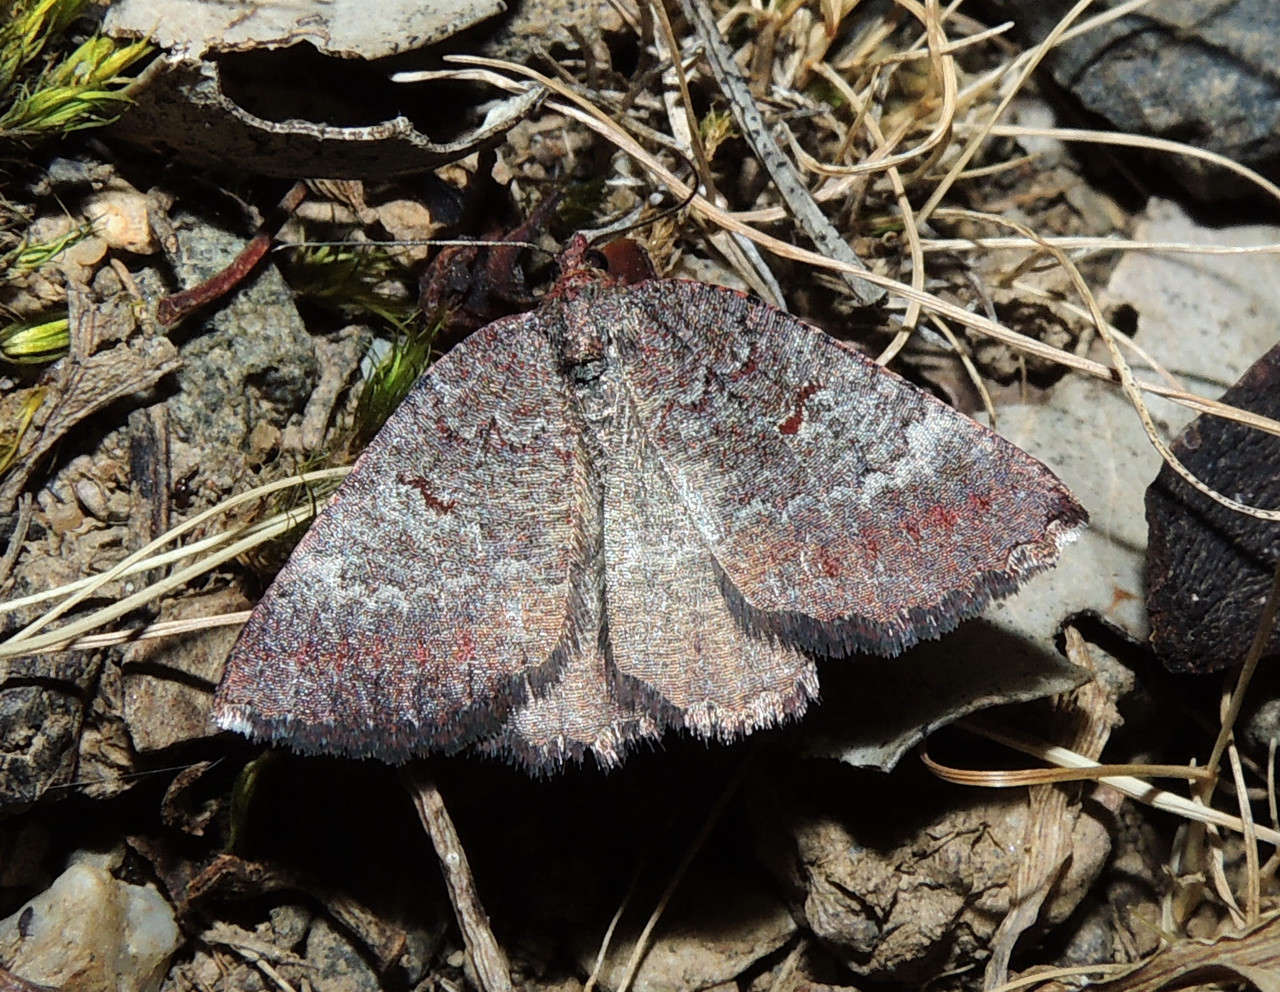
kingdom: Animalia
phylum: Arthropoda
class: Insecta
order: Lepidoptera
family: Geometridae
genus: Apodasmia
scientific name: Apodasmia rufonigraria
